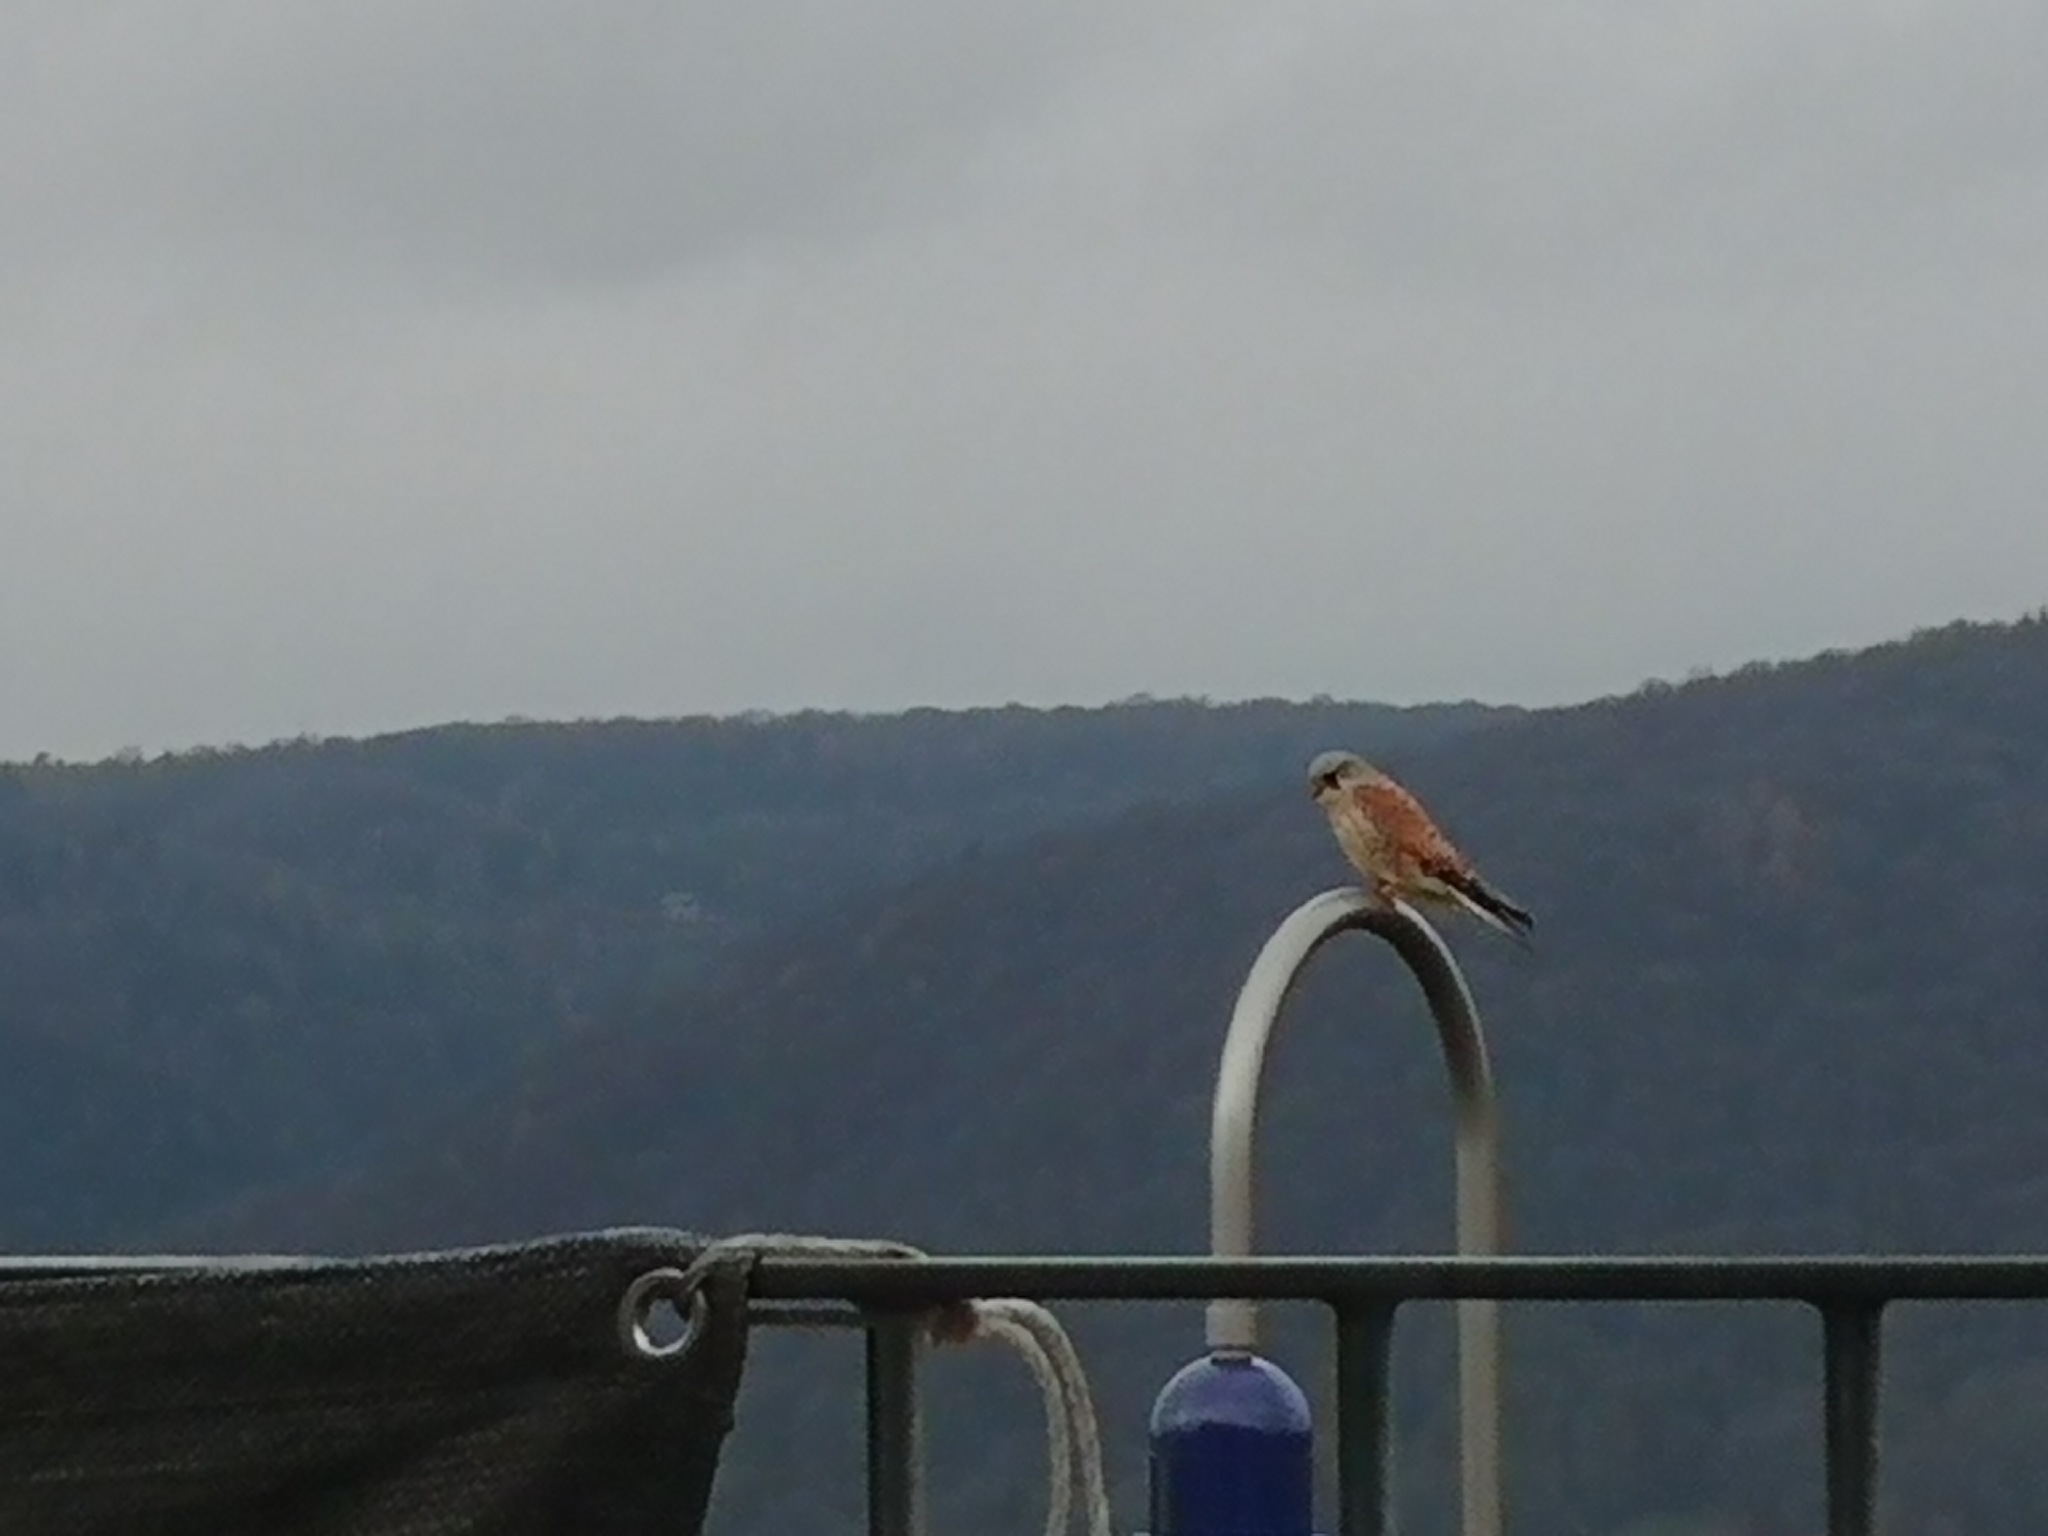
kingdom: Animalia
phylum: Chordata
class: Aves
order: Falconiformes
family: Falconidae
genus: Falco
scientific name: Falco tinnunculus
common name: Common kestrel
